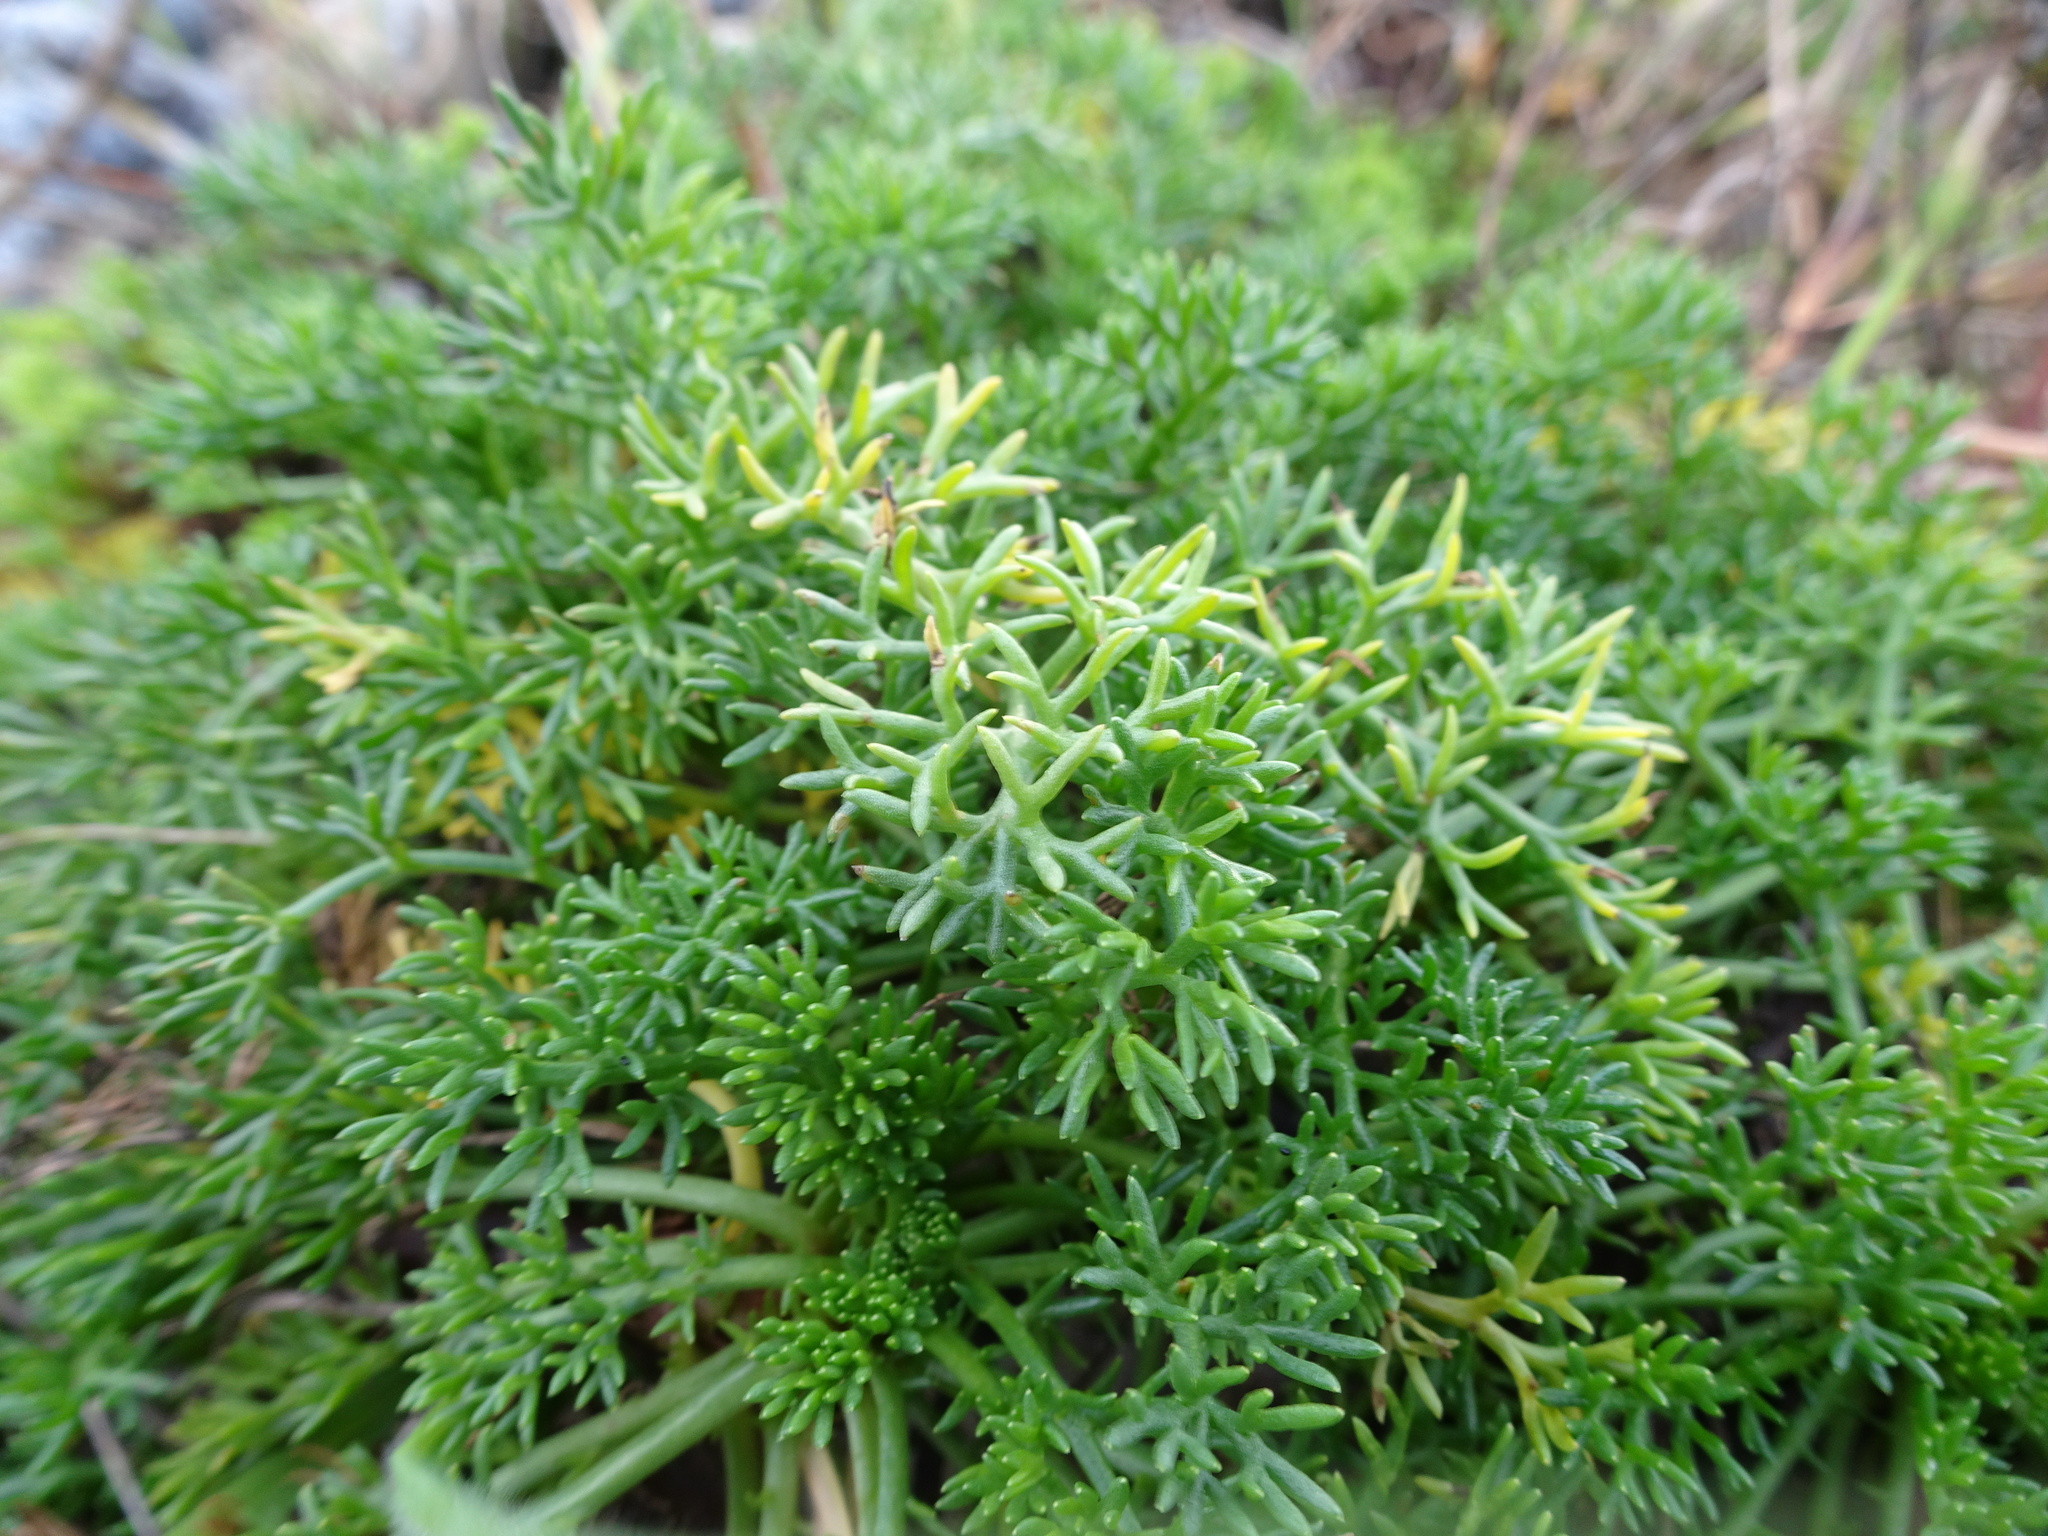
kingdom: Plantae
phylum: Tracheophyta
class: Magnoliopsida
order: Asterales
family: Asteraceae
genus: Tripleurospermum
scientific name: Tripleurospermum maritimum
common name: Sea mayweed
